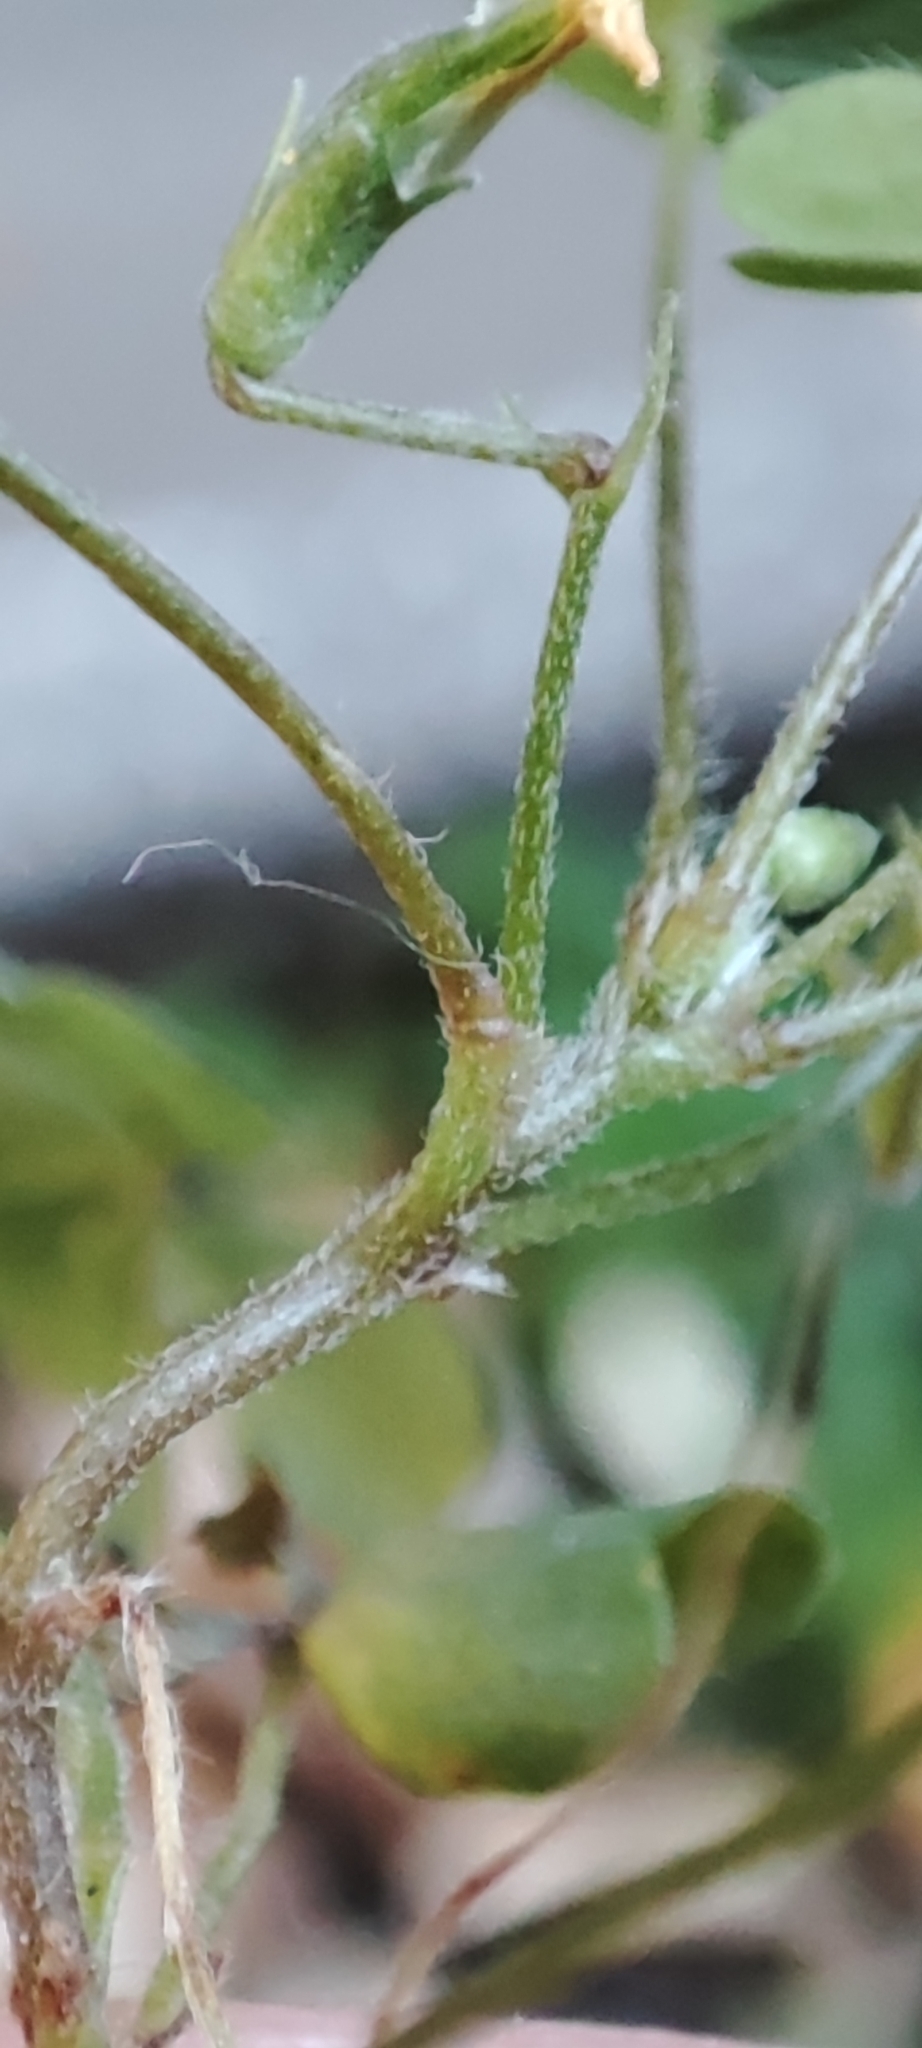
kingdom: Plantae
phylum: Tracheophyta
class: Magnoliopsida
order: Oxalidales
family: Oxalidaceae
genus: Oxalis
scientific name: Oxalis corniculata
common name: Procumbent yellow-sorrel
